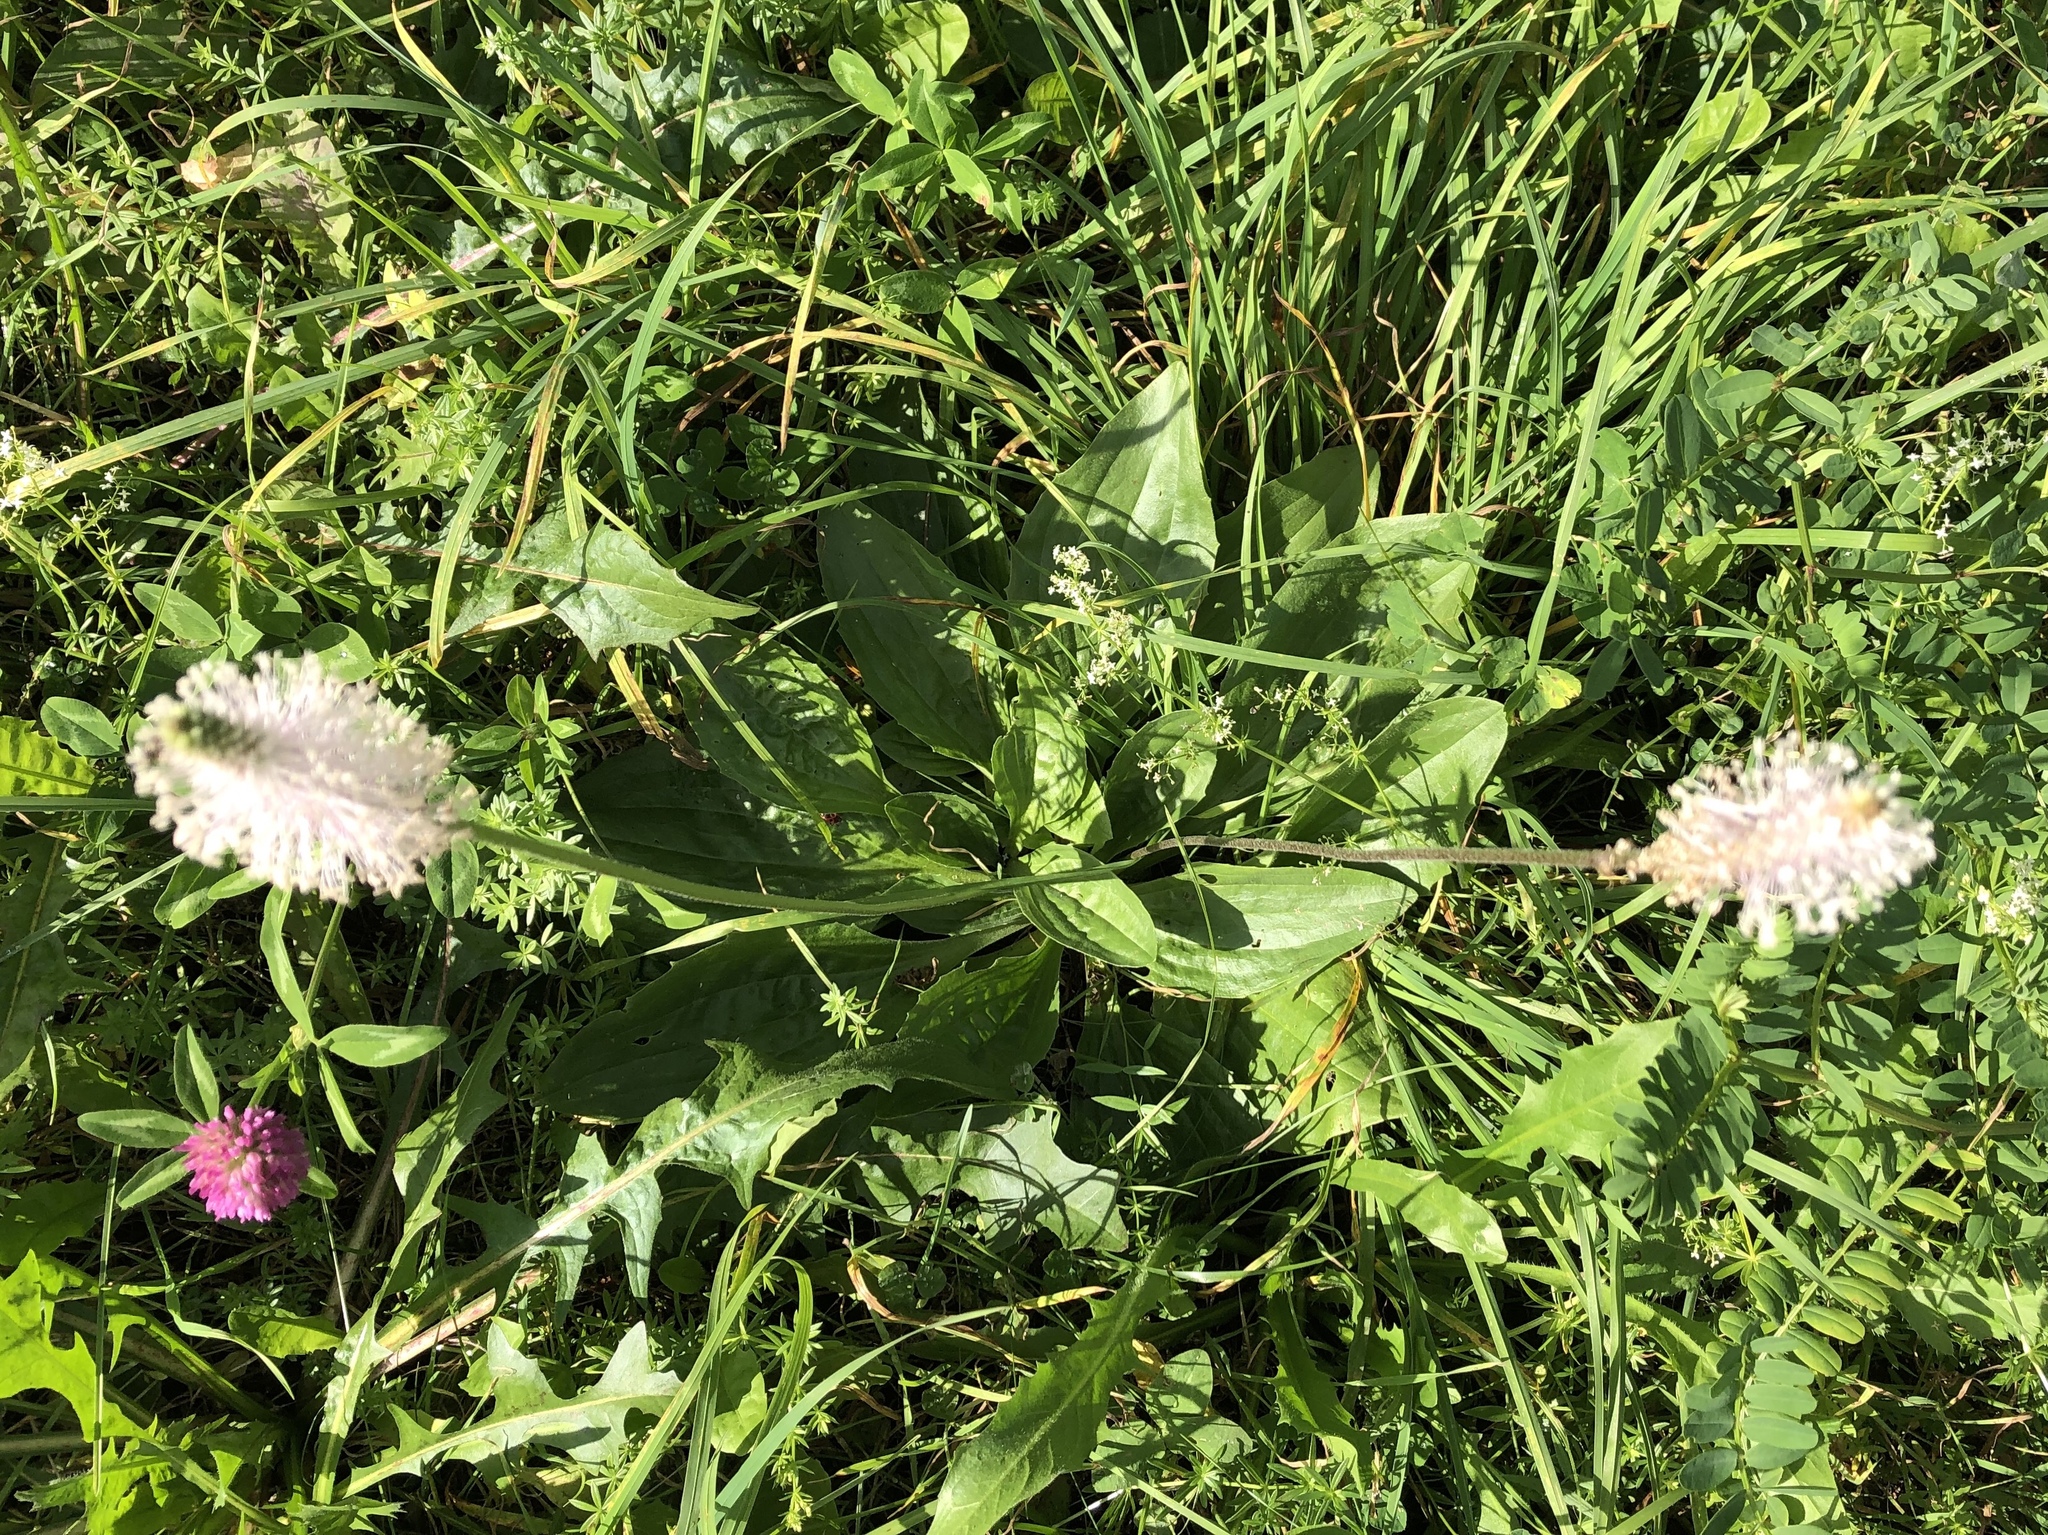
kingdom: Plantae
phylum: Tracheophyta
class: Magnoliopsida
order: Lamiales
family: Plantaginaceae
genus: Plantago
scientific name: Plantago media
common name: Hoary plantain
